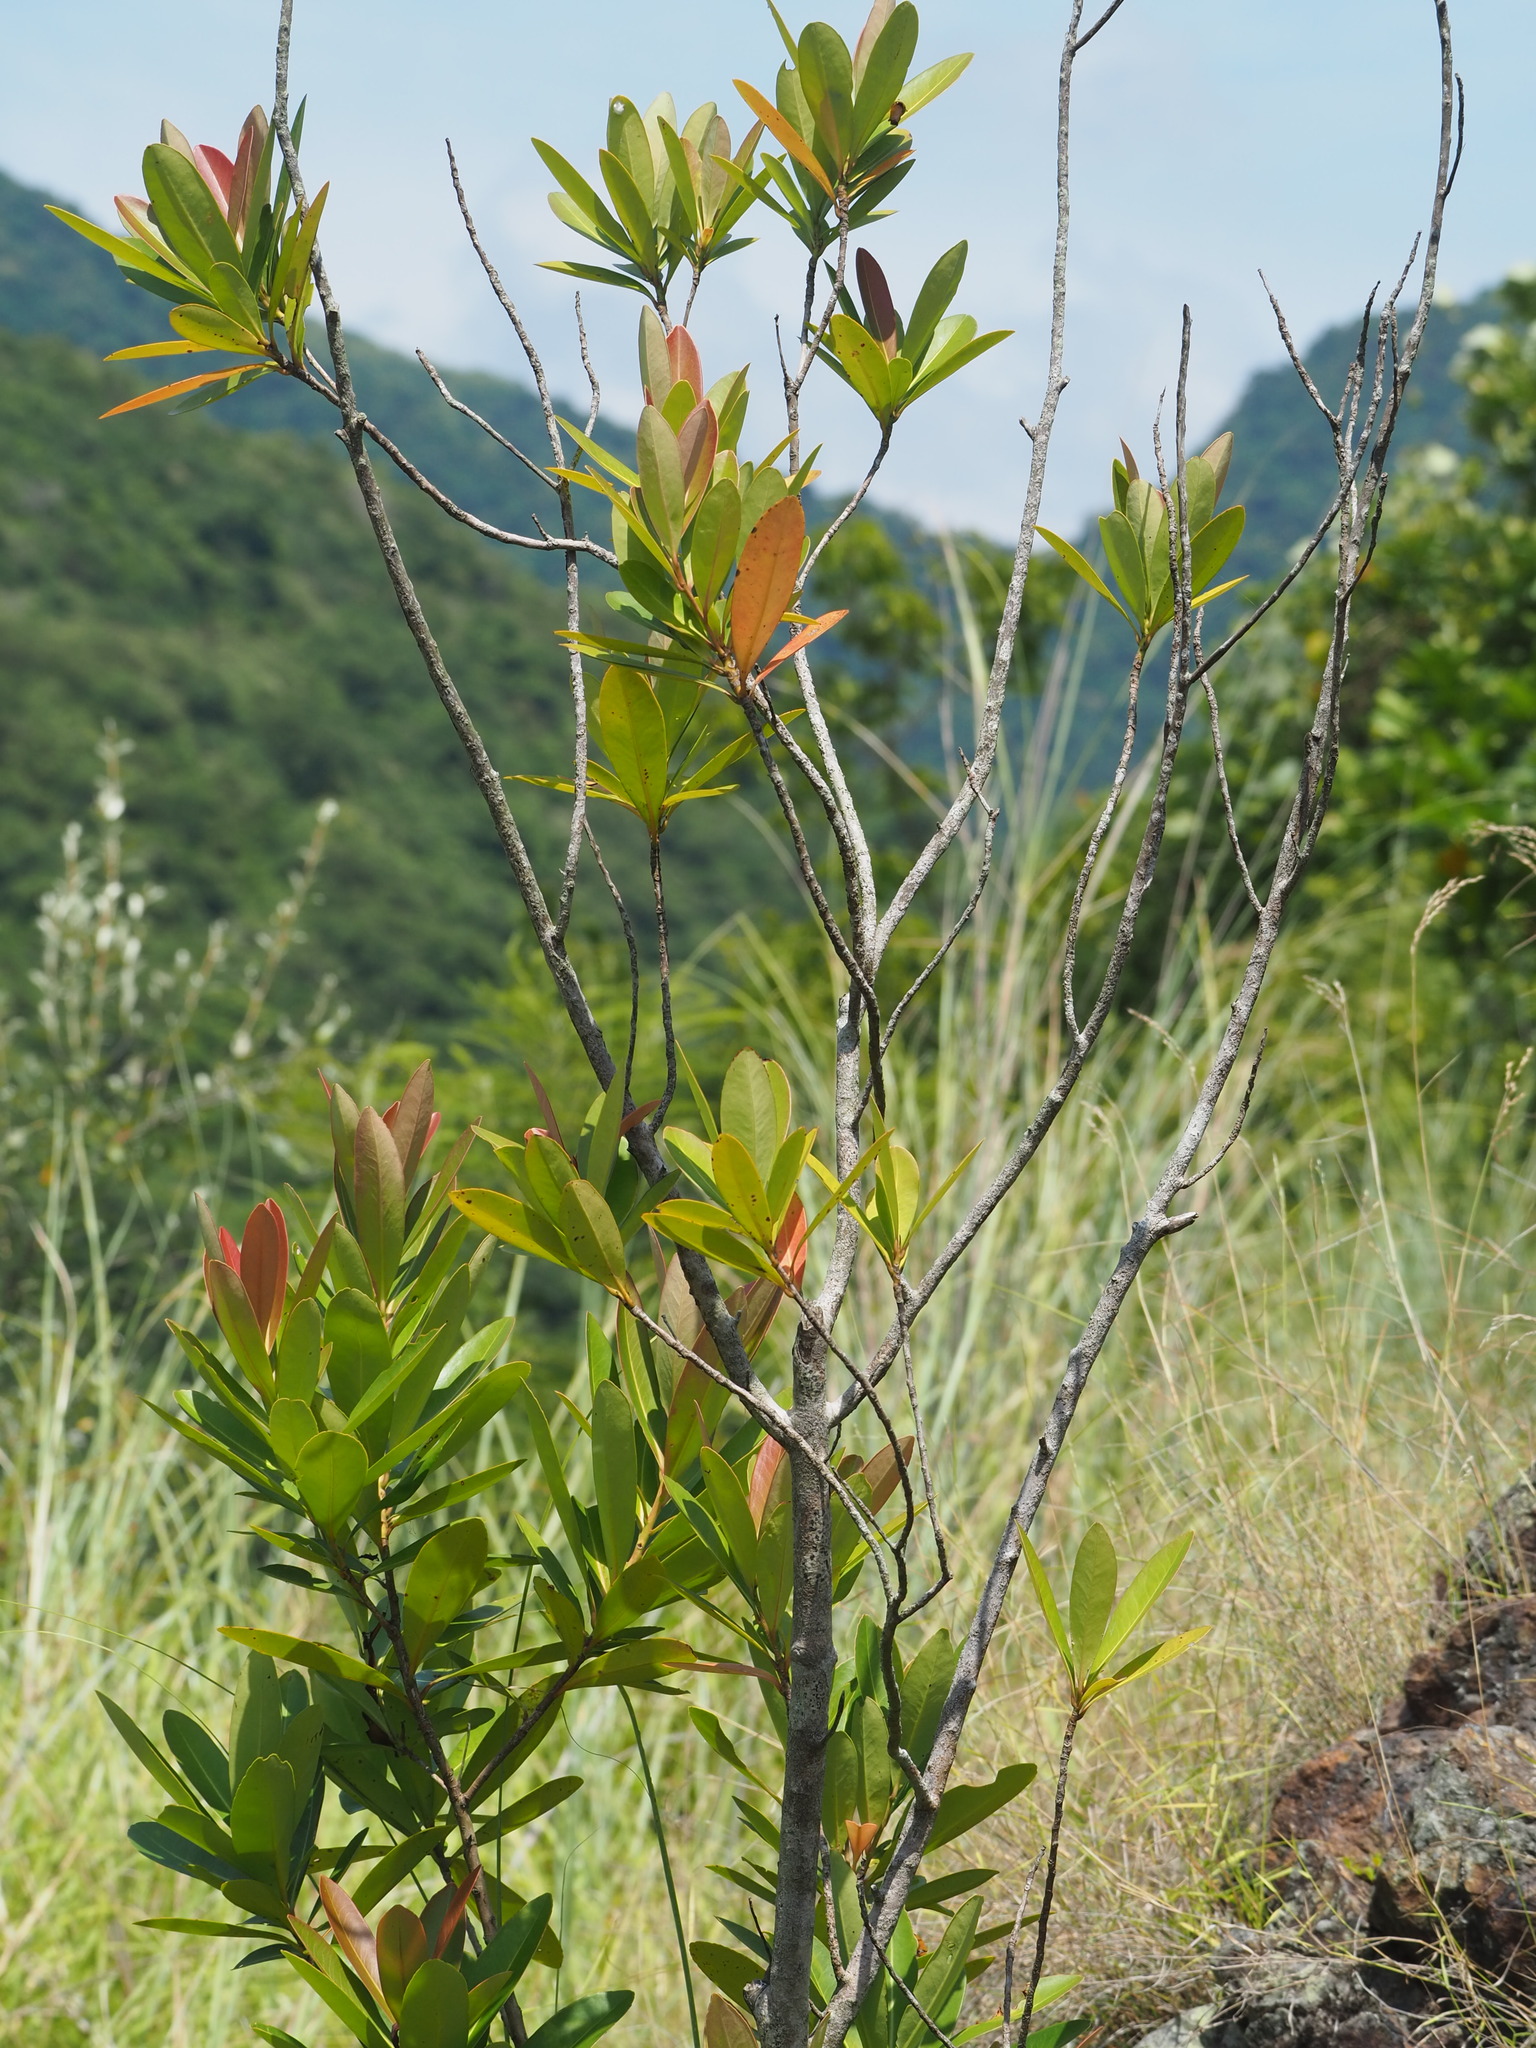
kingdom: Plantae
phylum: Tracheophyta
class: Magnoliopsida
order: Ericales
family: Theaceae
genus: Polyspora
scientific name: Polyspora axillaris
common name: Fried egg tree
